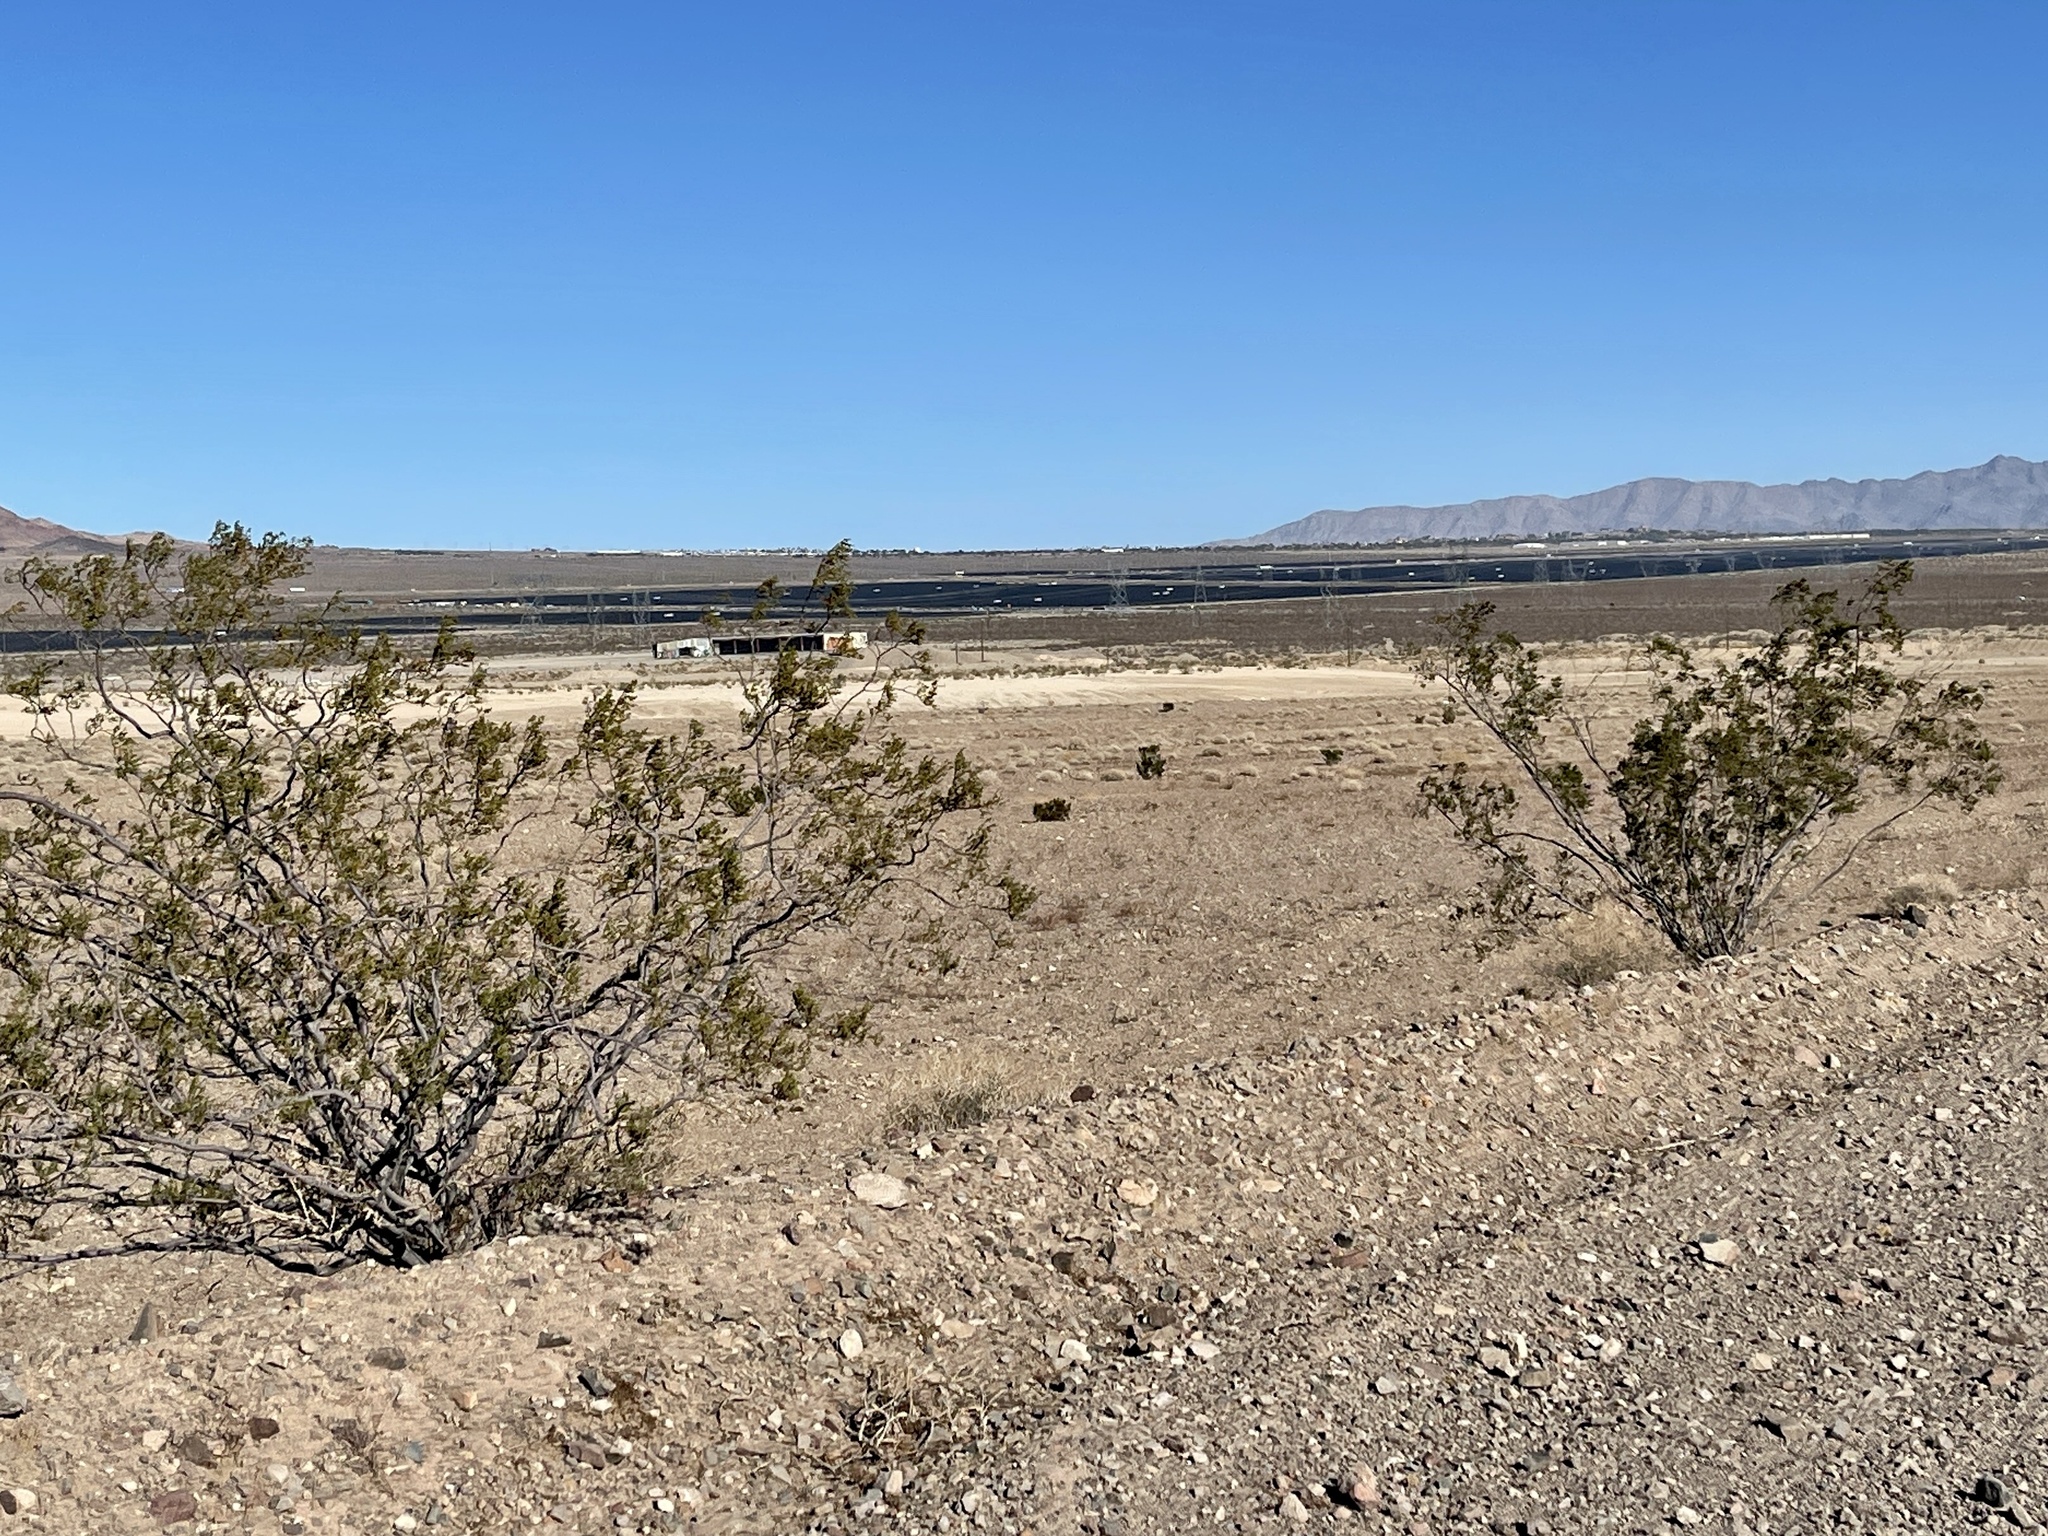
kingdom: Plantae
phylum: Tracheophyta
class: Magnoliopsida
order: Zygophyllales
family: Zygophyllaceae
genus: Larrea
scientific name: Larrea tridentata
